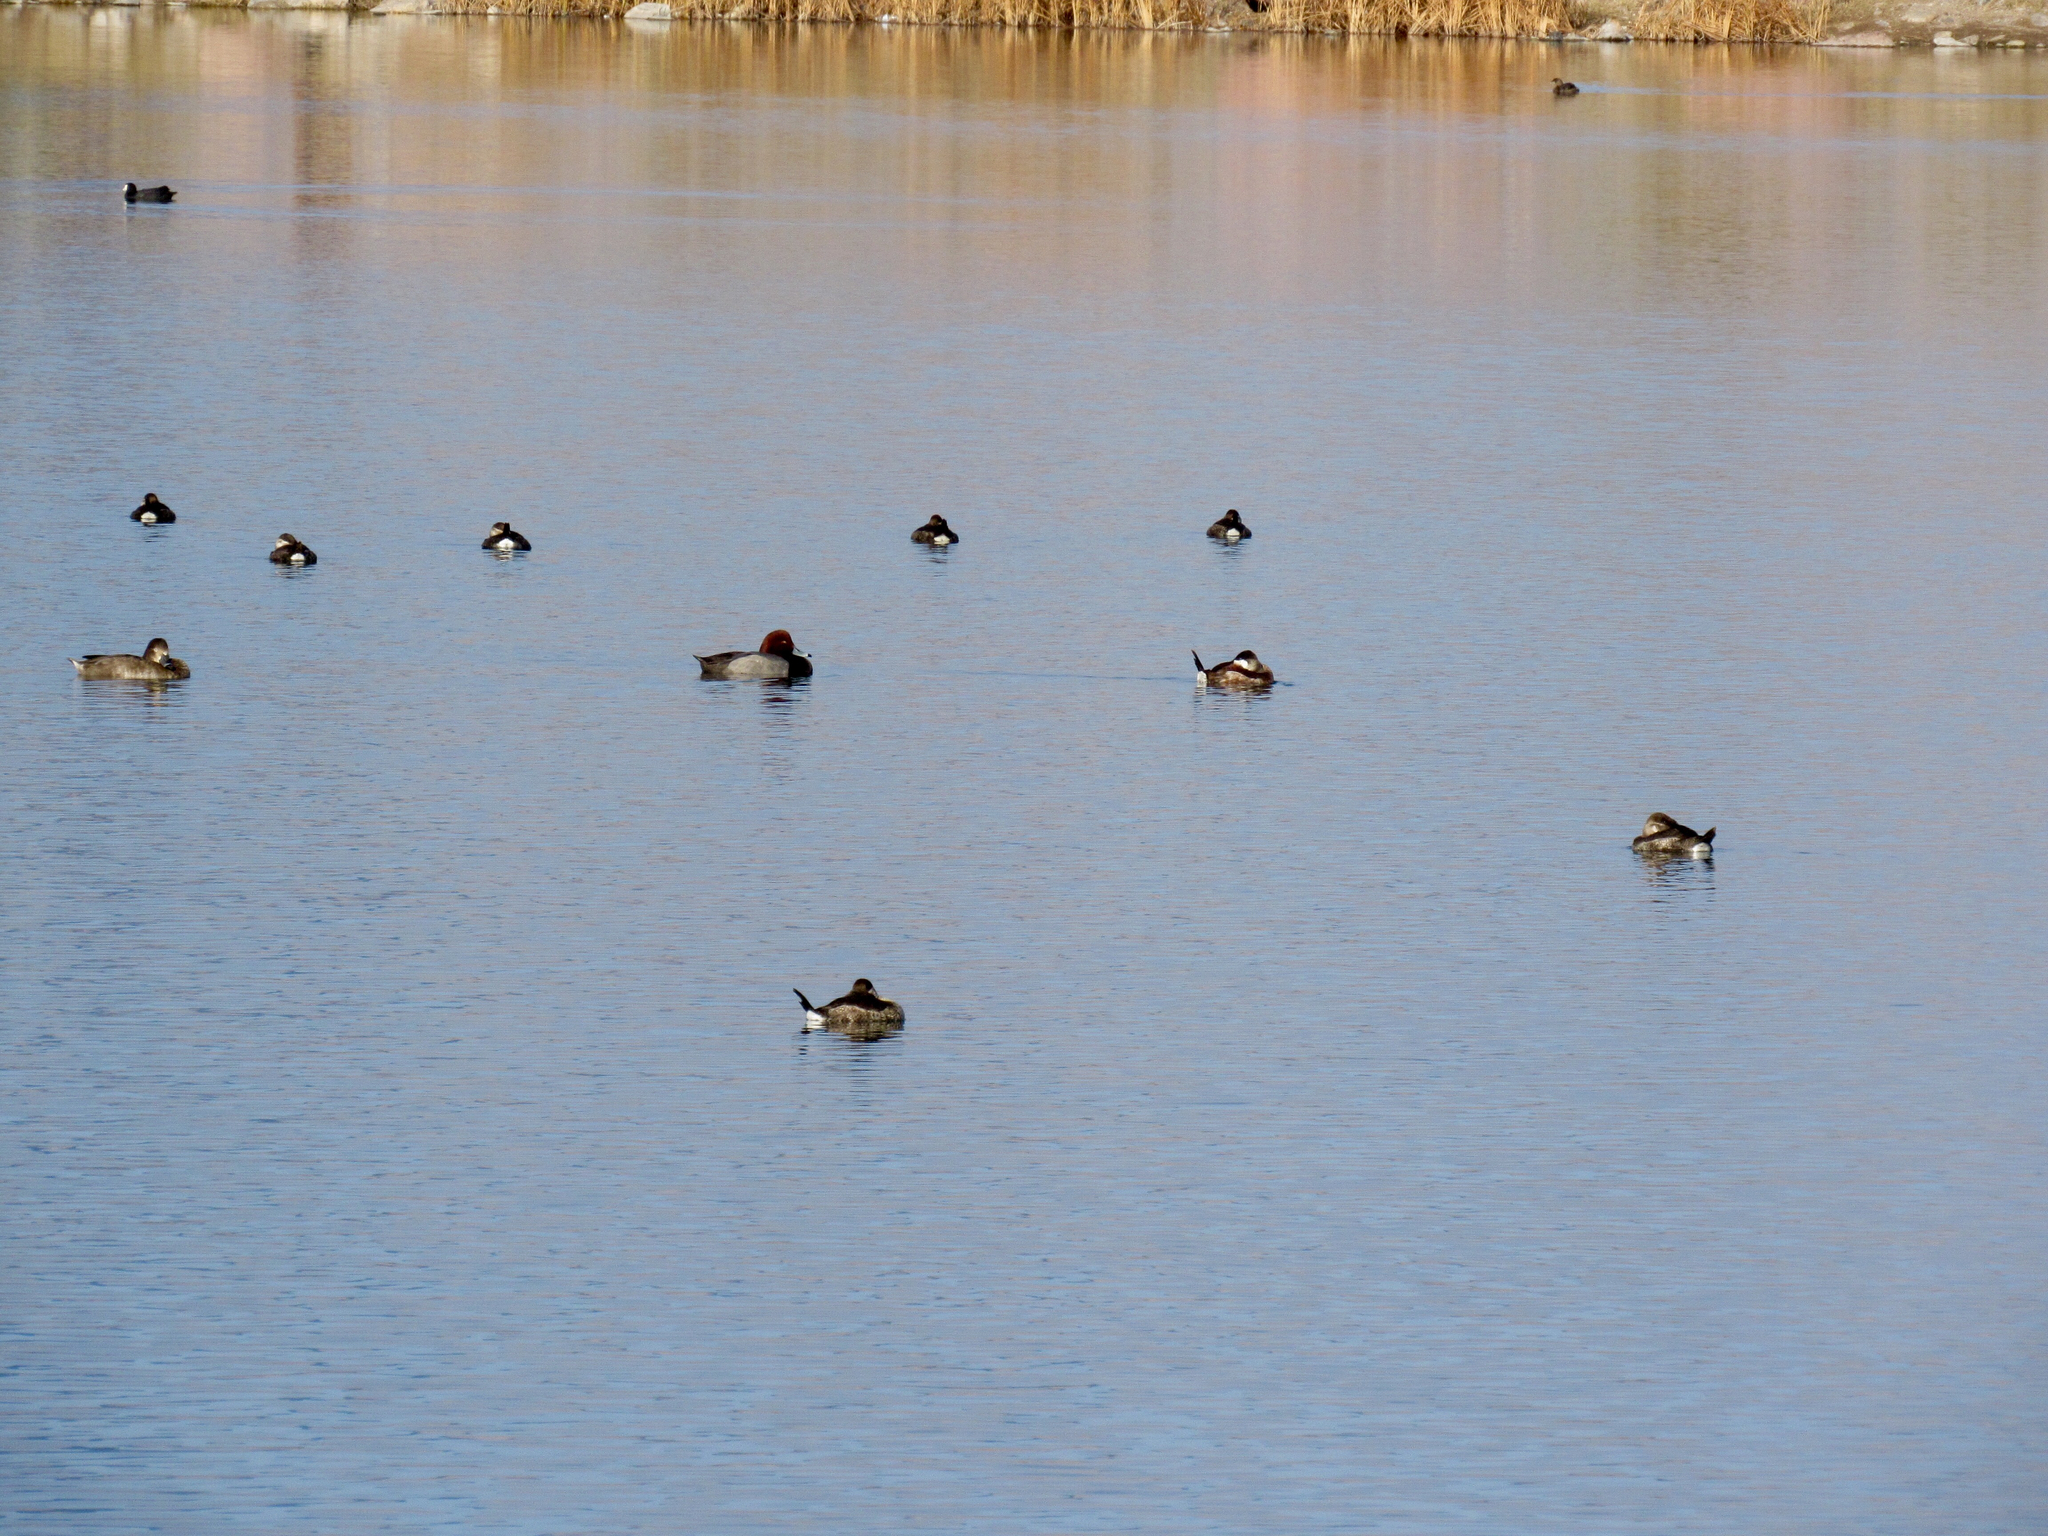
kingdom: Animalia
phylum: Chordata
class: Aves
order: Anseriformes
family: Anatidae
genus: Oxyura
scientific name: Oxyura jamaicensis
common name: Ruddy duck
